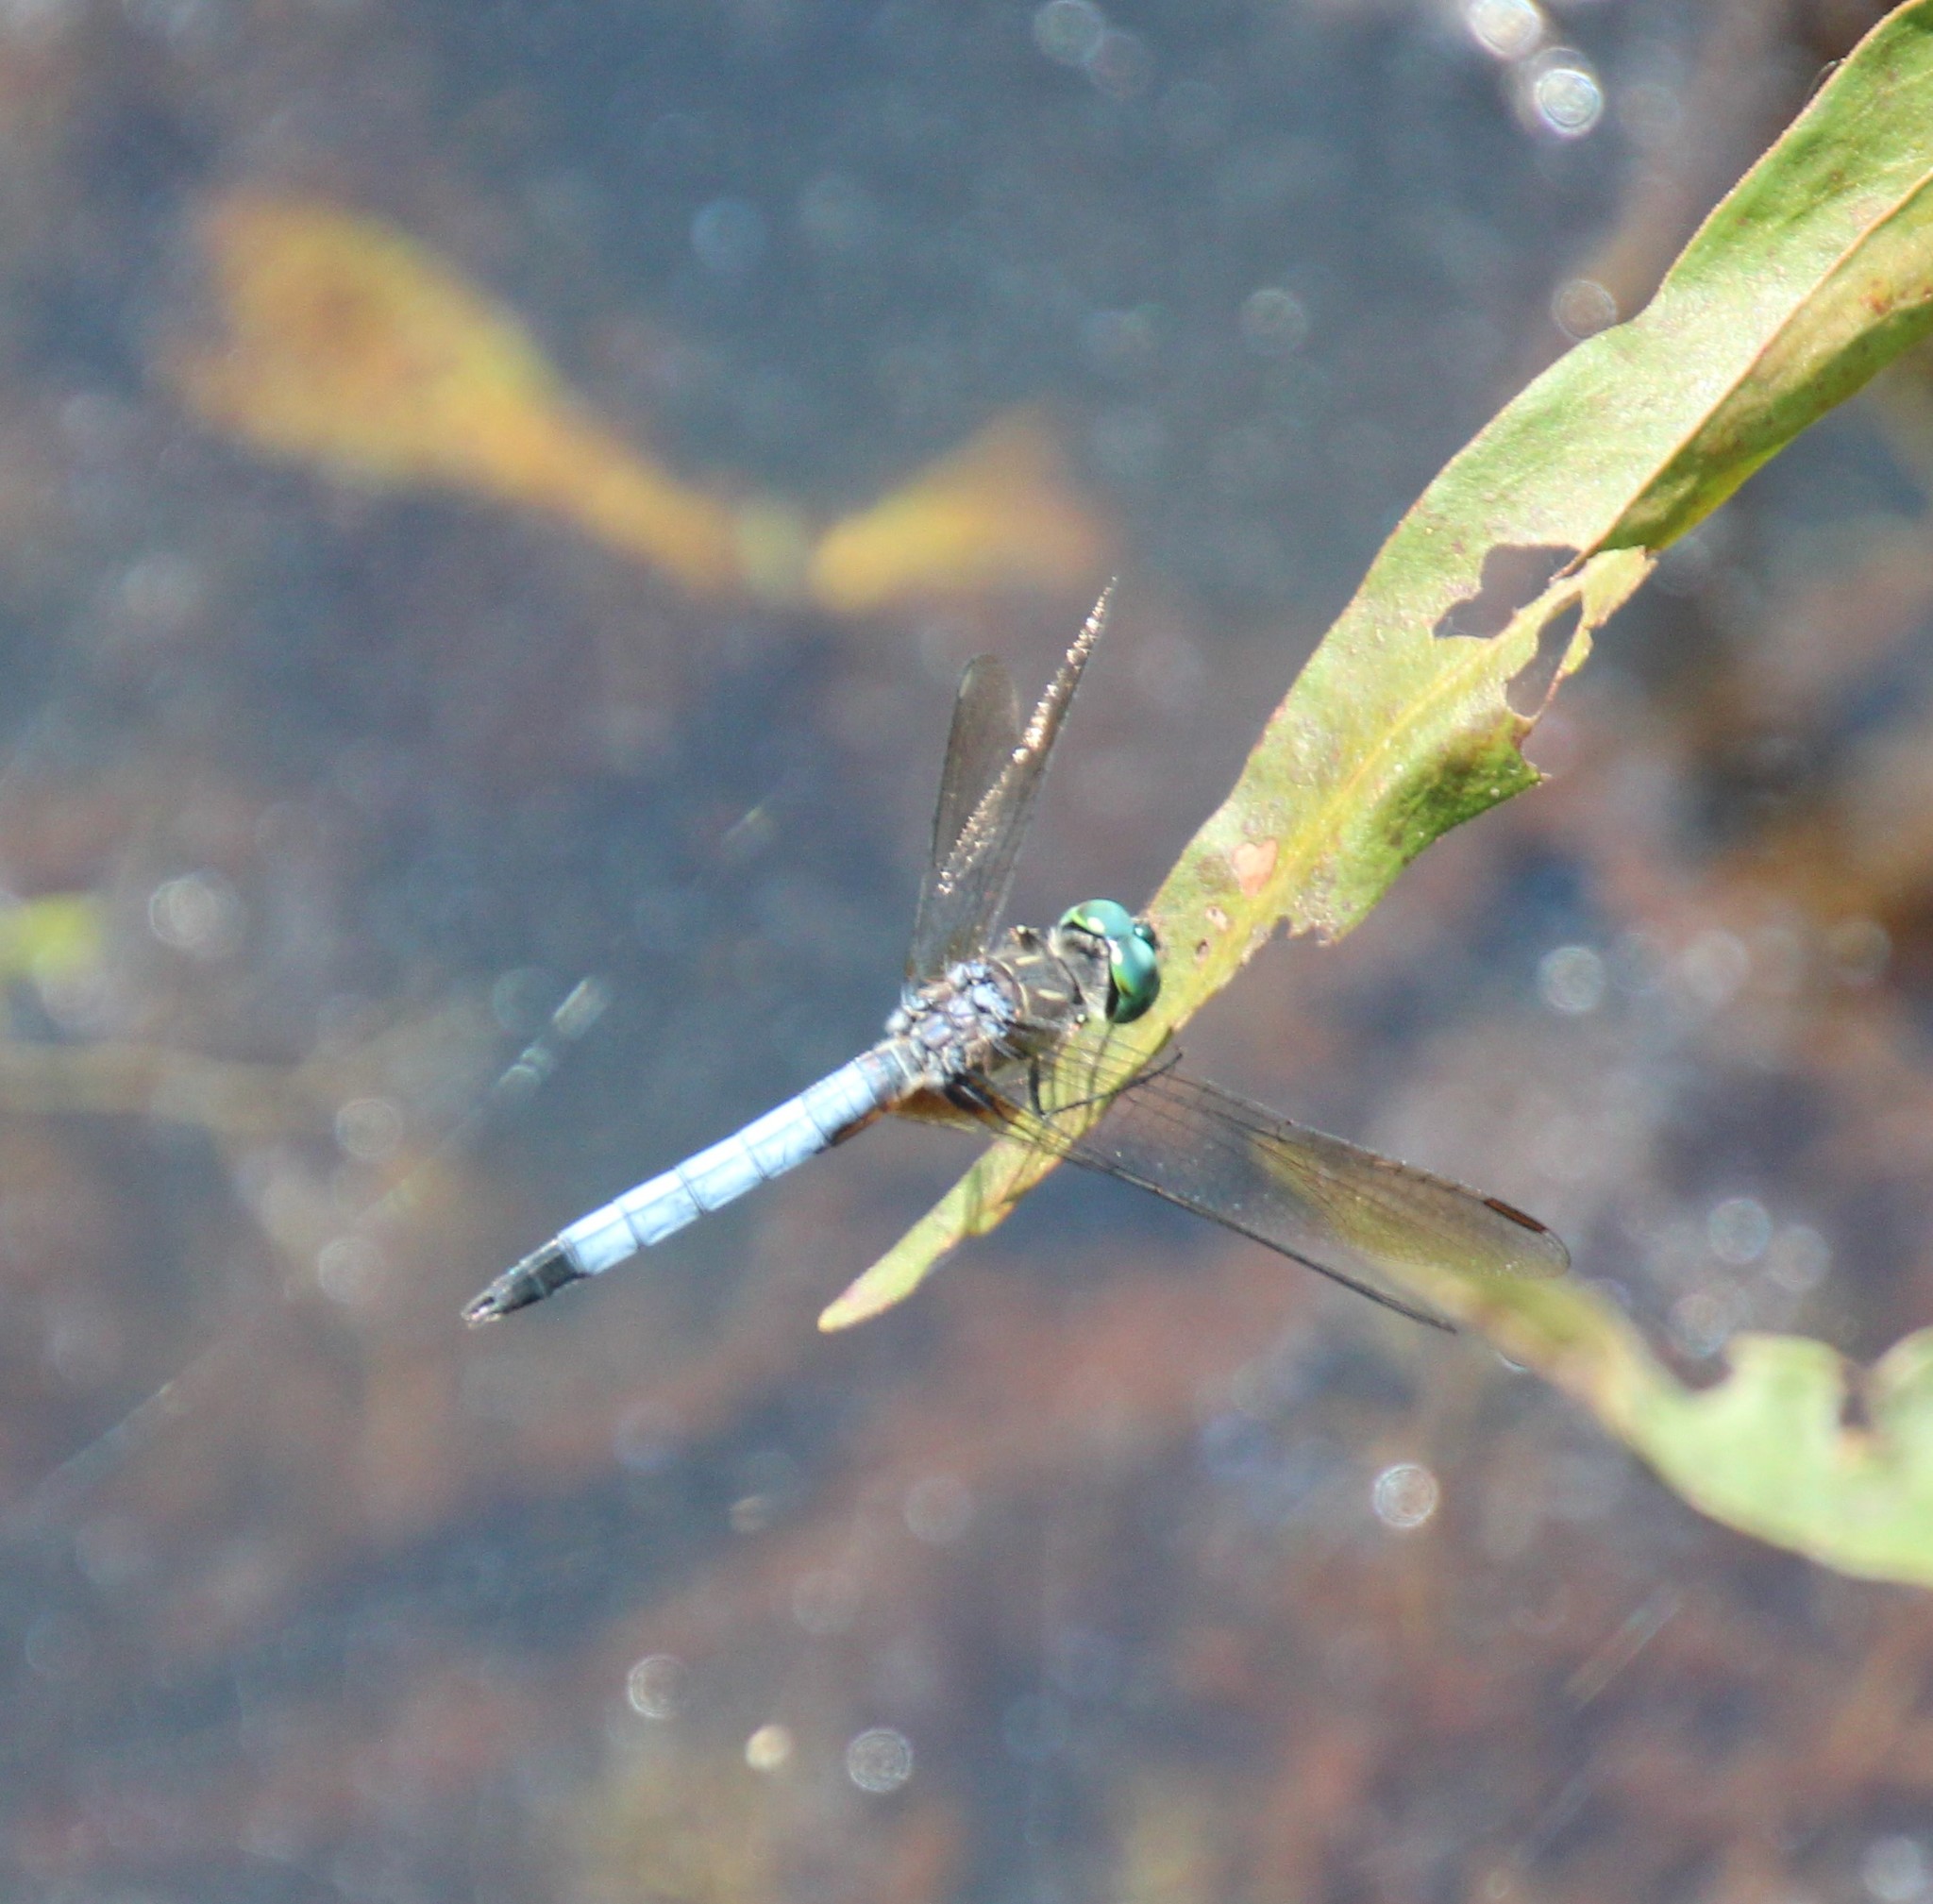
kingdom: Animalia
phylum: Arthropoda
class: Insecta
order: Odonata
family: Libellulidae
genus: Pachydiplax
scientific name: Pachydiplax longipennis
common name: Blue dasher
